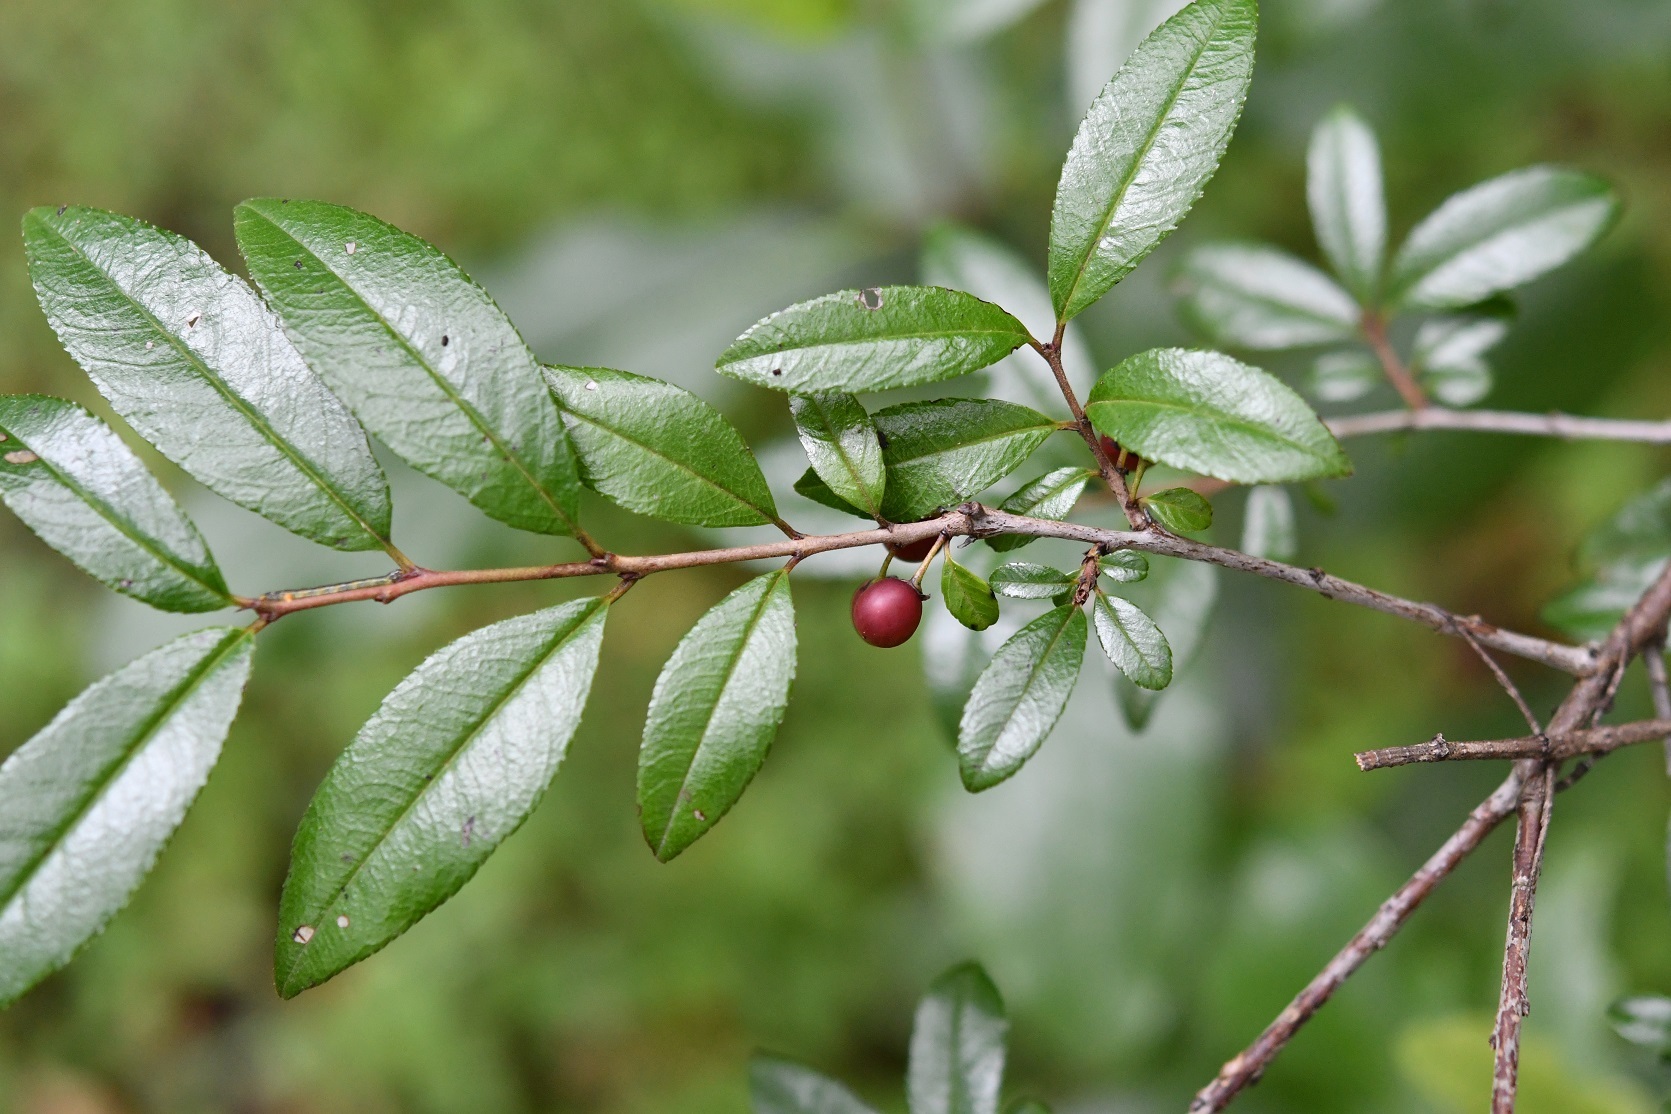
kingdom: Plantae
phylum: Tracheophyta
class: Magnoliopsida
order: Rosales
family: Rhamnaceae
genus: Frangula
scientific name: Frangula mcvaughii
